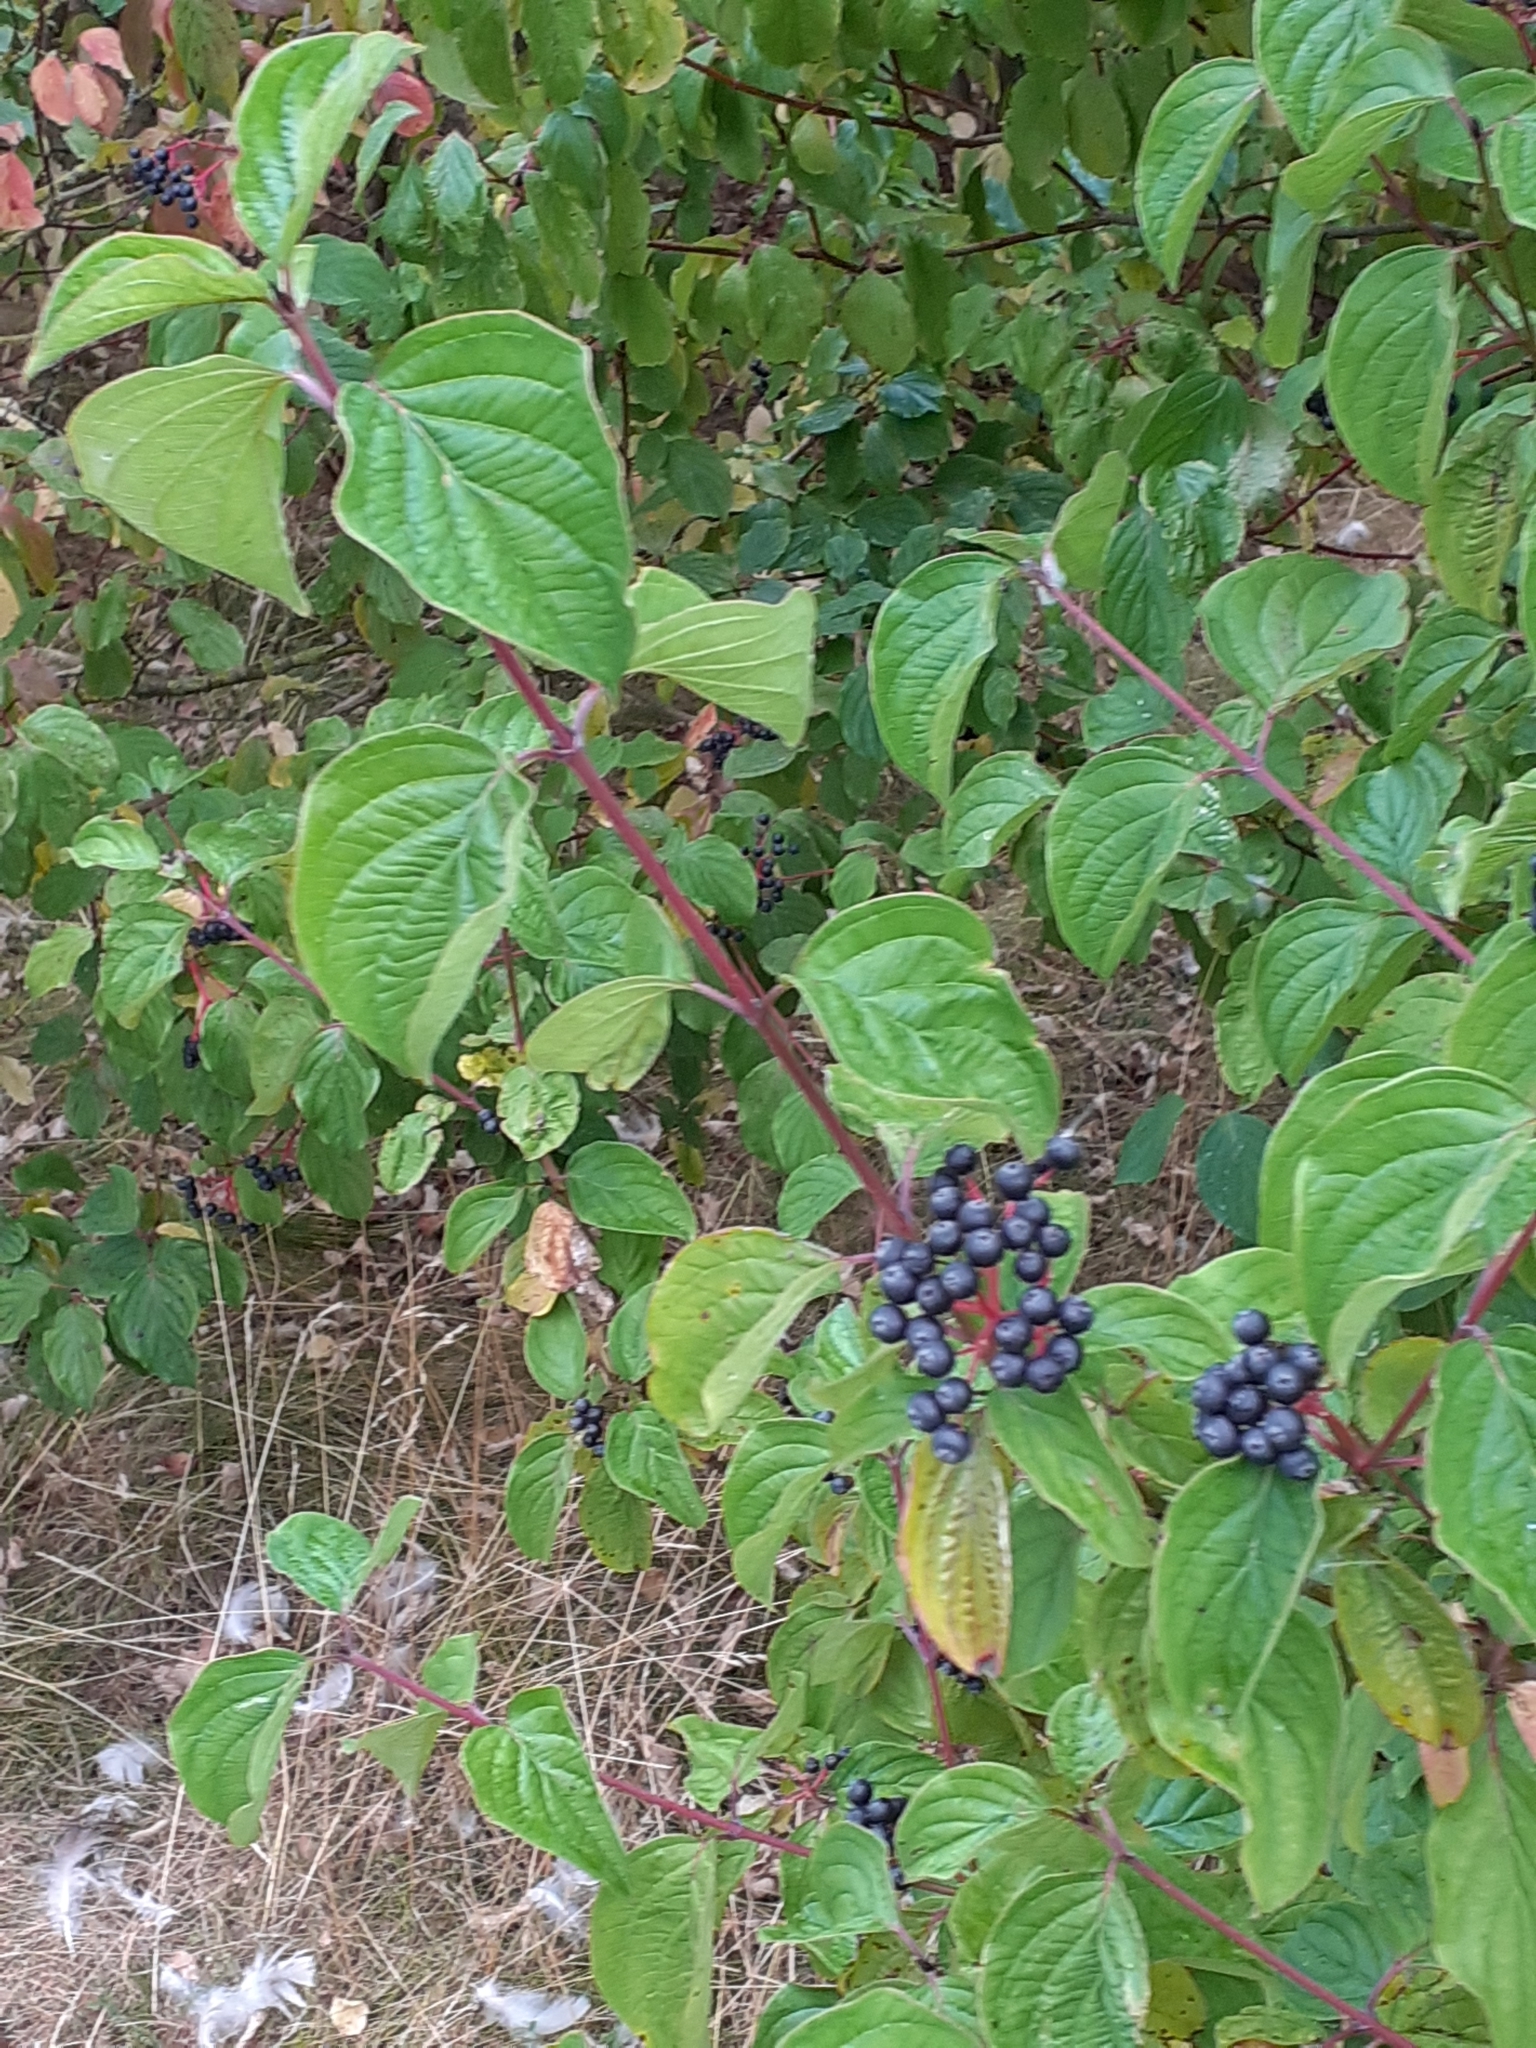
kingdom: Plantae
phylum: Tracheophyta
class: Magnoliopsida
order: Cornales
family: Cornaceae
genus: Cornus
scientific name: Cornus sanguinea
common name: Dogwood
